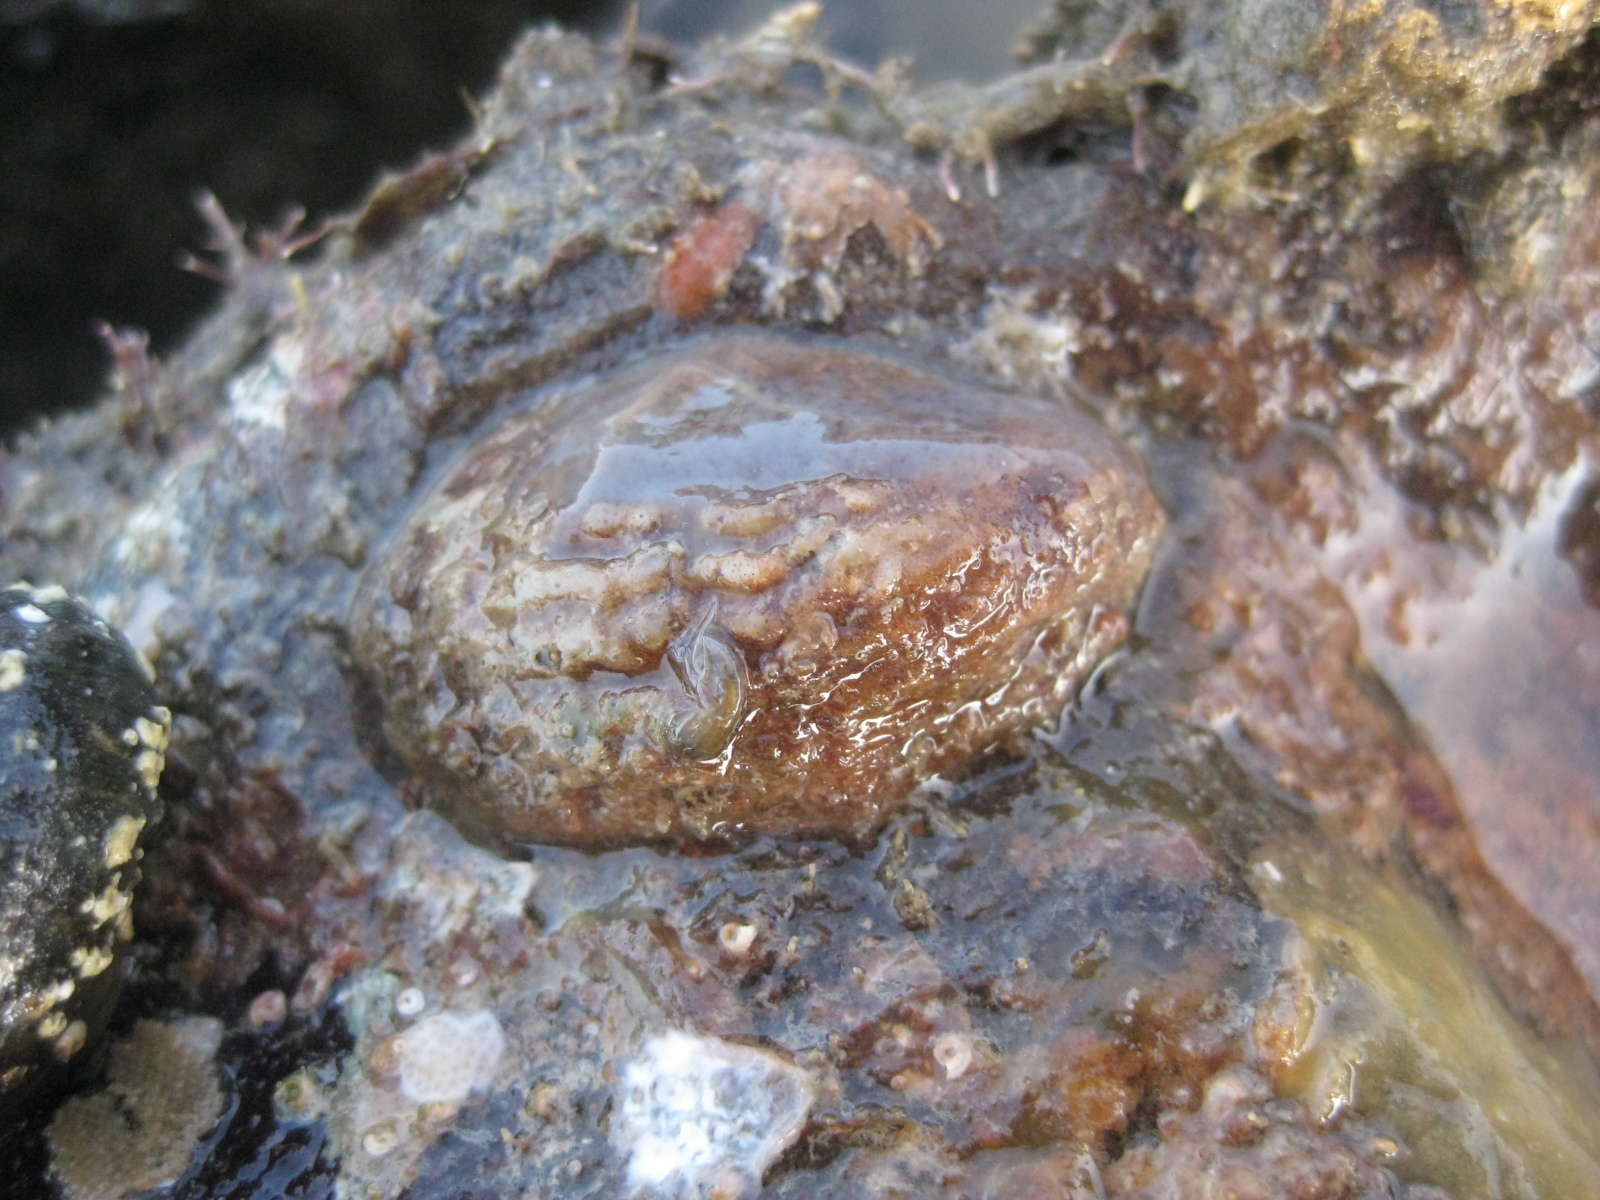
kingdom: Animalia
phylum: Mollusca
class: Gastropoda
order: Littorinimorpha
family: Calyptraeidae
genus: Maoricrypta
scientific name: Maoricrypta costata
